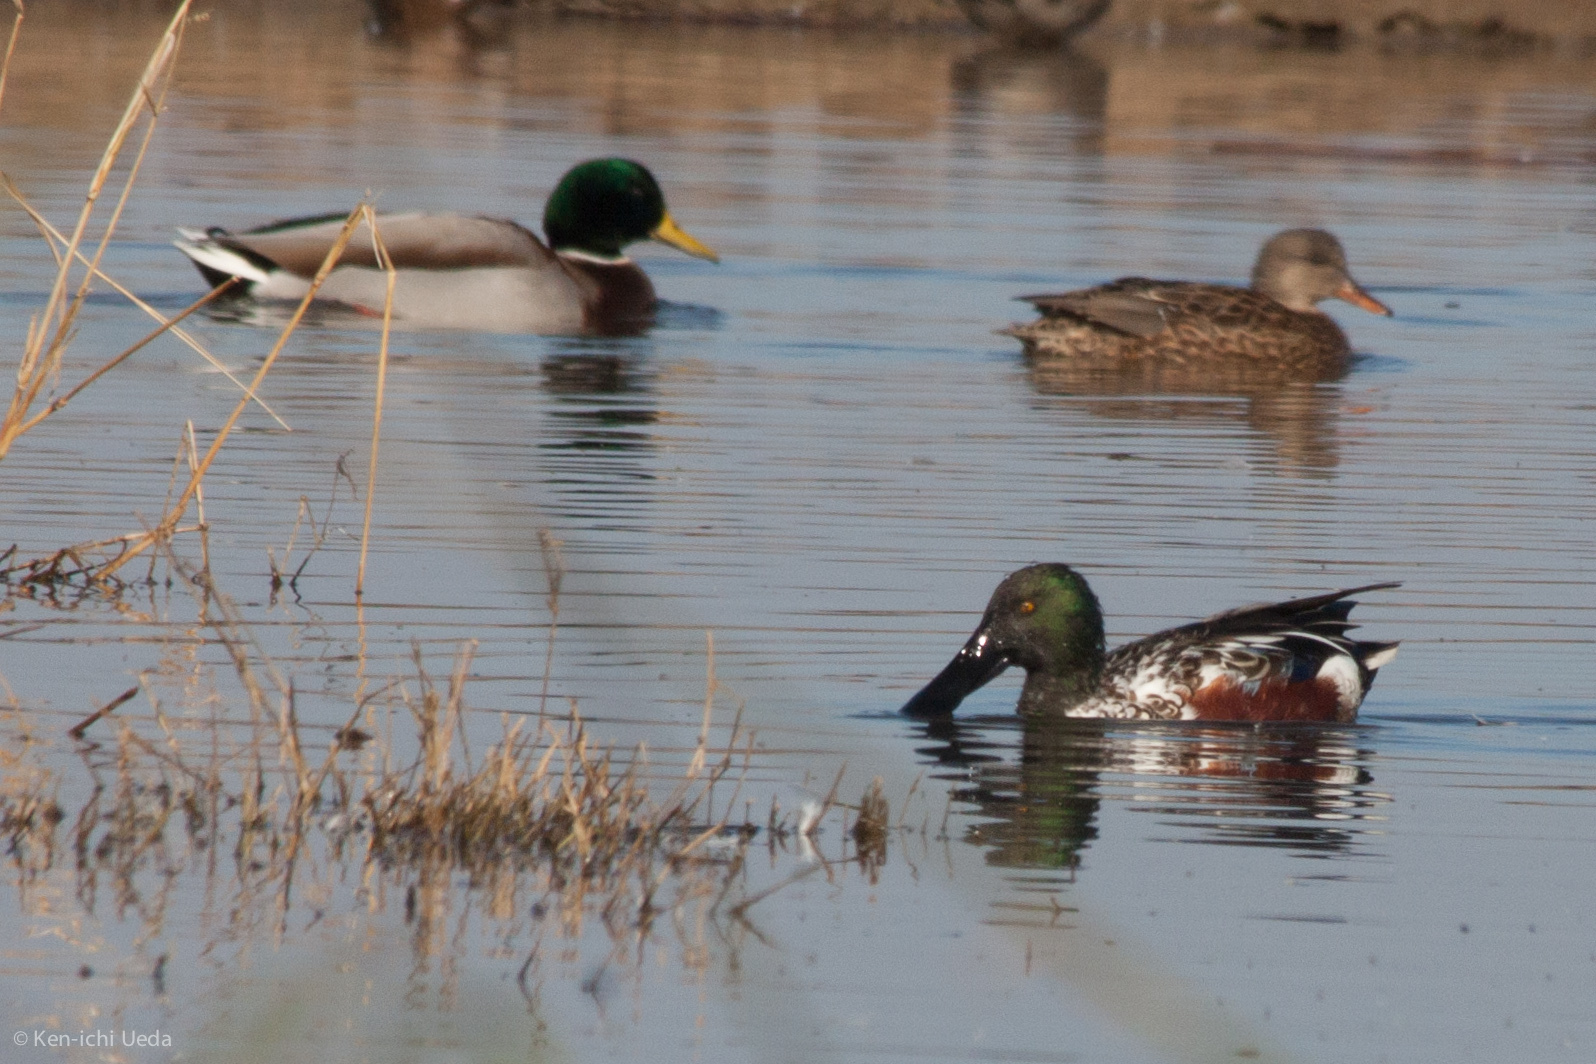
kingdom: Animalia
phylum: Chordata
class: Aves
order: Anseriformes
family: Anatidae
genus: Anas
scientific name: Anas platyrhynchos
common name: Mallard
